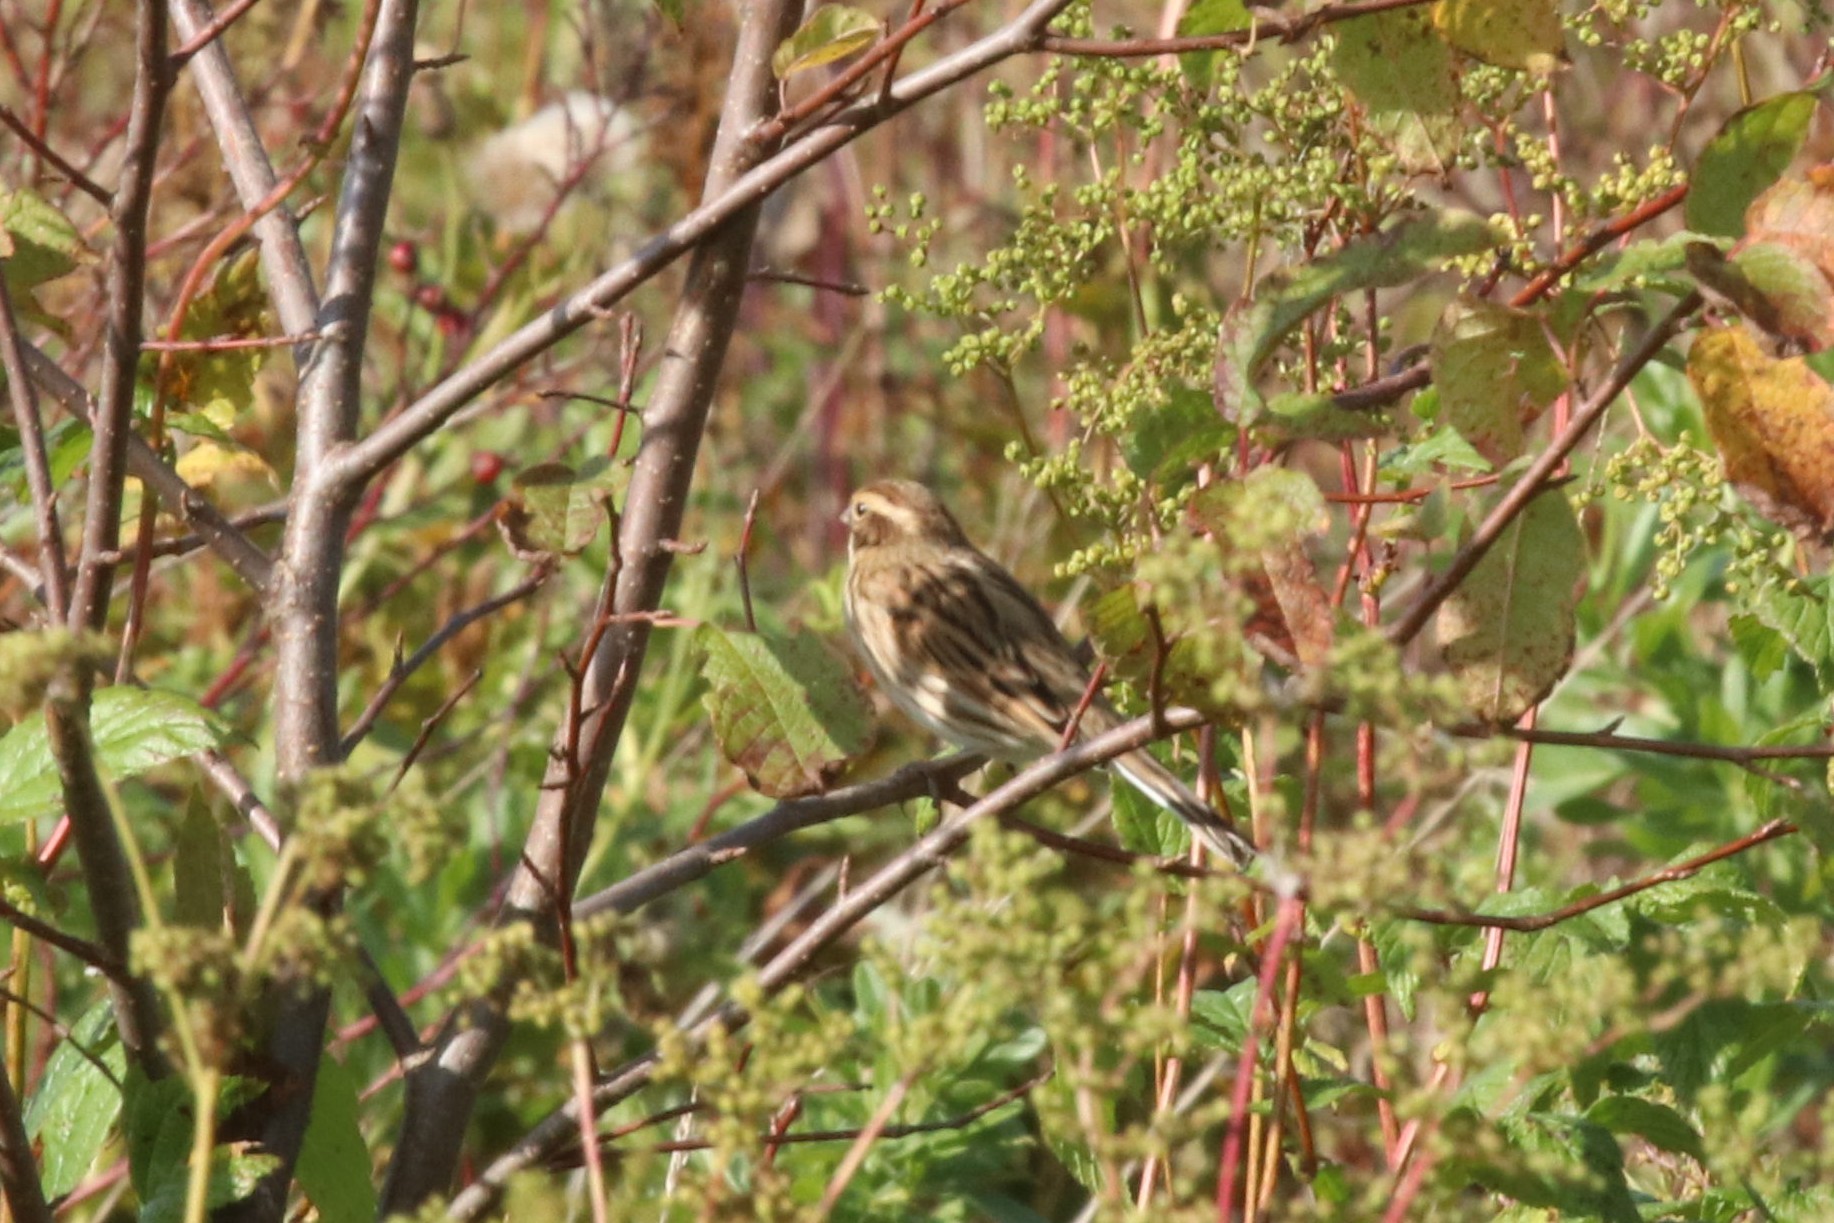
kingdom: Animalia
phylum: Chordata
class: Aves
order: Passeriformes
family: Emberizidae
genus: Emberiza
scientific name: Emberiza schoeniclus
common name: Reed bunting
